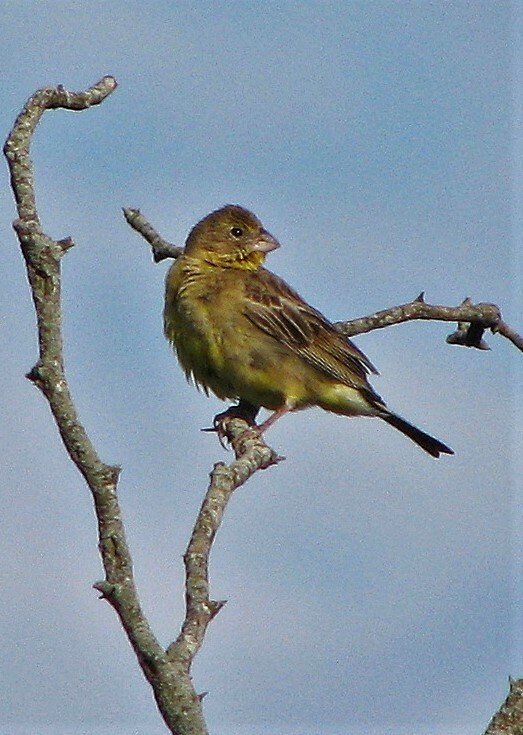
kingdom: Animalia
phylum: Chordata
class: Aves
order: Passeriformes
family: Thraupidae
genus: Sicalis
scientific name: Sicalis luteola
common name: Grassland yellow-finch
